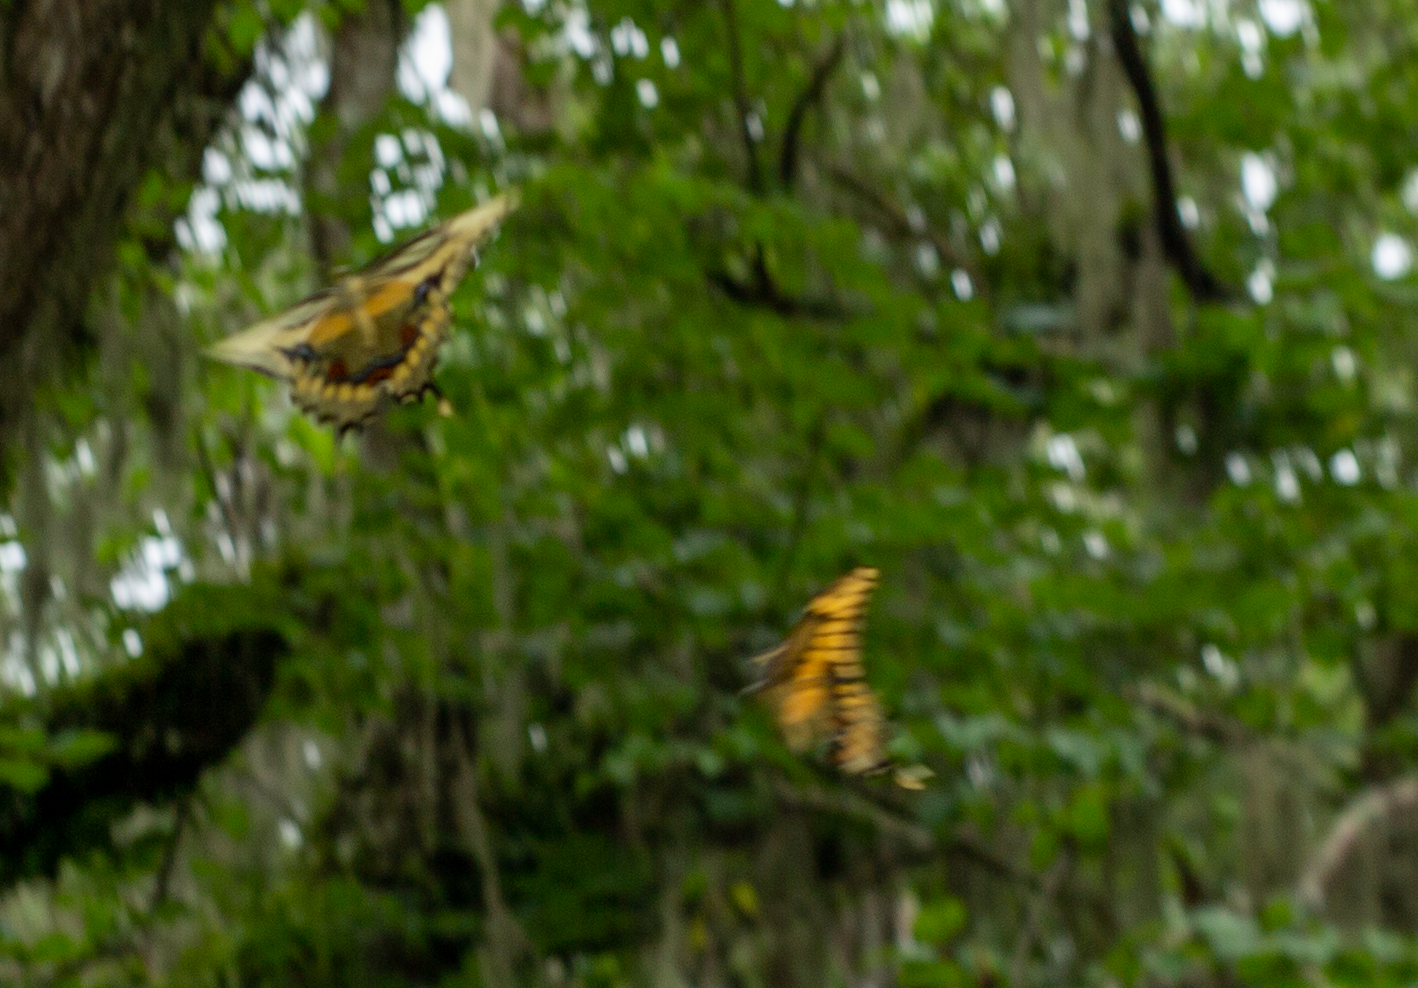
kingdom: Animalia
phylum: Arthropoda
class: Insecta
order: Lepidoptera
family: Papilionidae
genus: Papilio
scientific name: Papilio cresphontes
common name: Giant swallowtail
